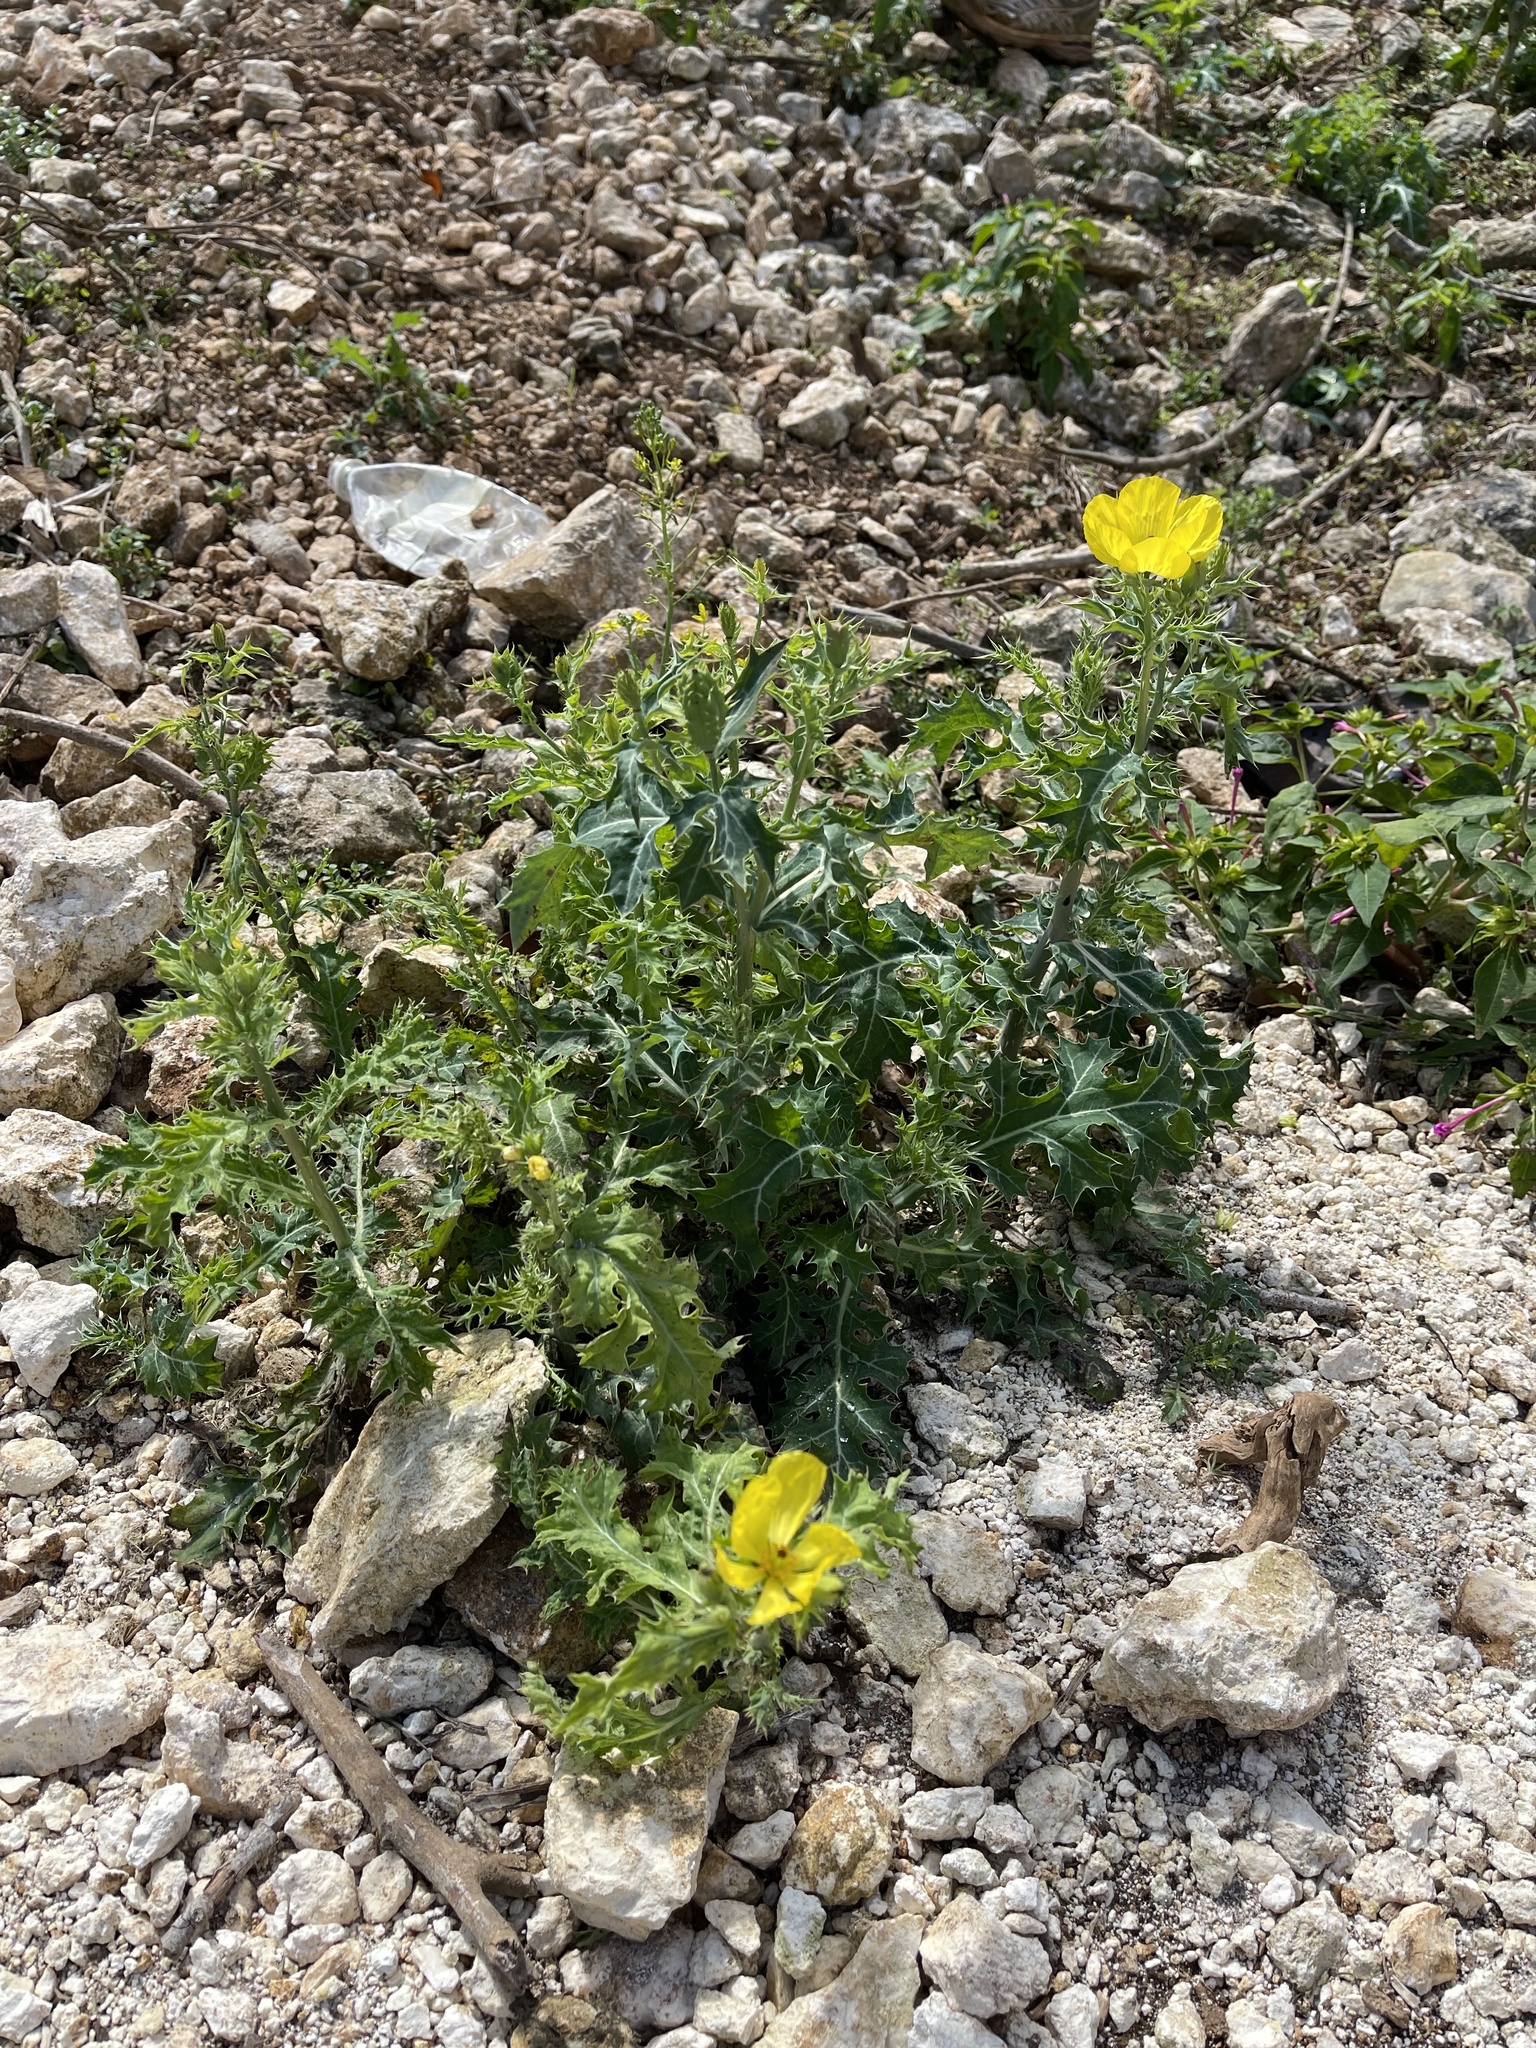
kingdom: Plantae
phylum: Tracheophyta
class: Magnoliopsida
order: Ranunculales
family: Papaveraceae
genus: Argemone
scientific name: Argemone mexicana
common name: Mexican poppy
